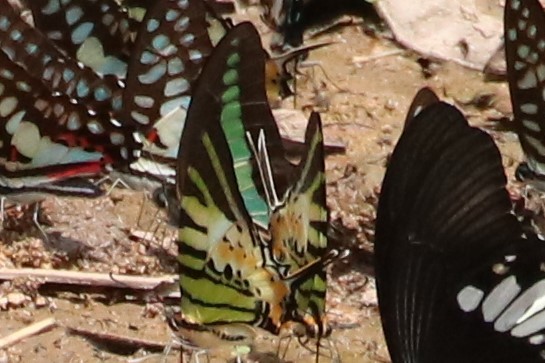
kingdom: Animalia
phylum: Arthropoda
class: Insecta
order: Lepidoptera
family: Papilionidae
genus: Graphium
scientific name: Graphium antiphates
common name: Fivebar swordtail
